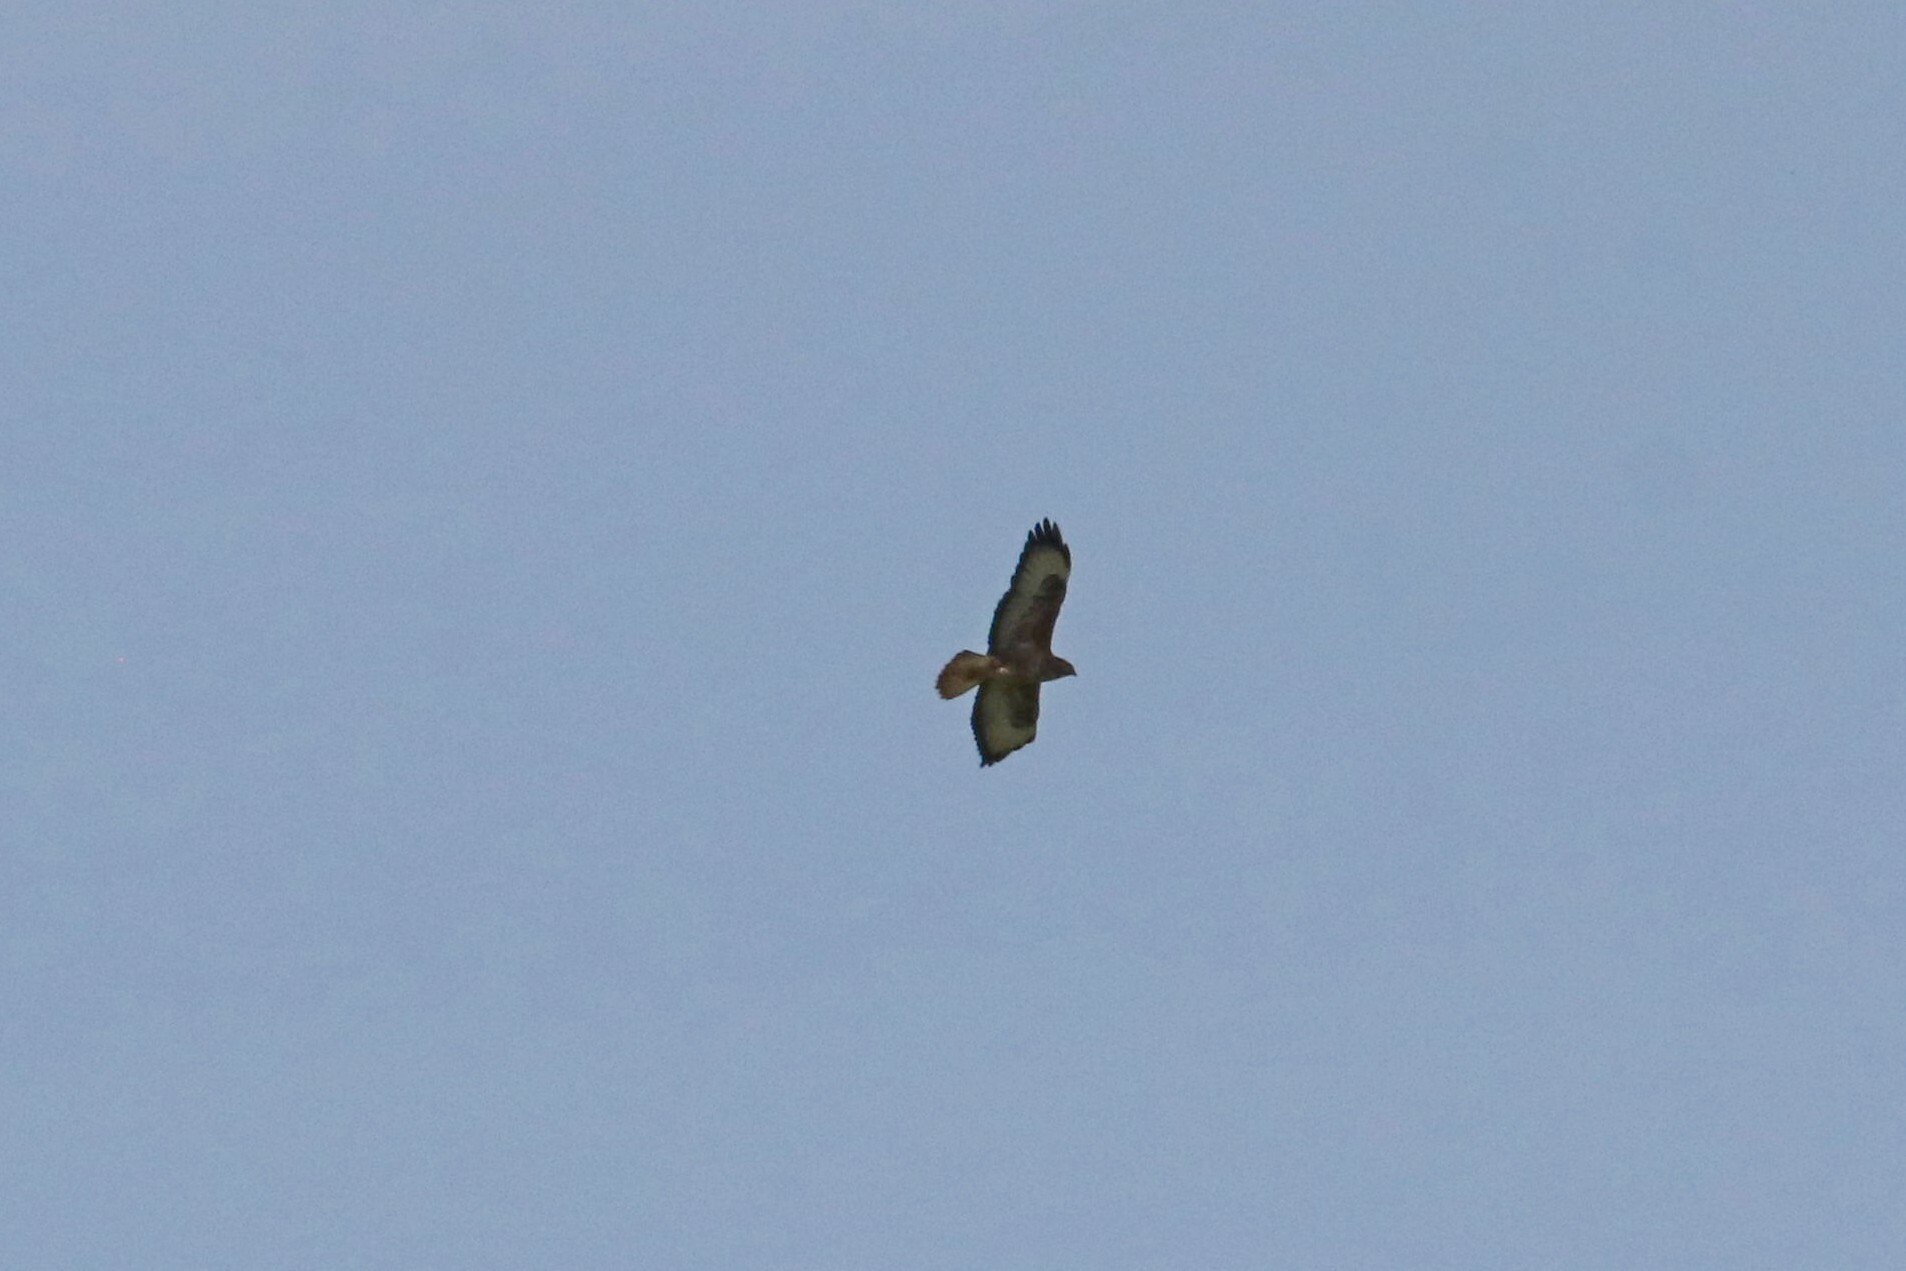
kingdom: Animalia
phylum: Chordata
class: Aves
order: Accipitriformes
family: Accipitridae
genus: Buteo
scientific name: Buteo buteo
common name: Common buzzard
